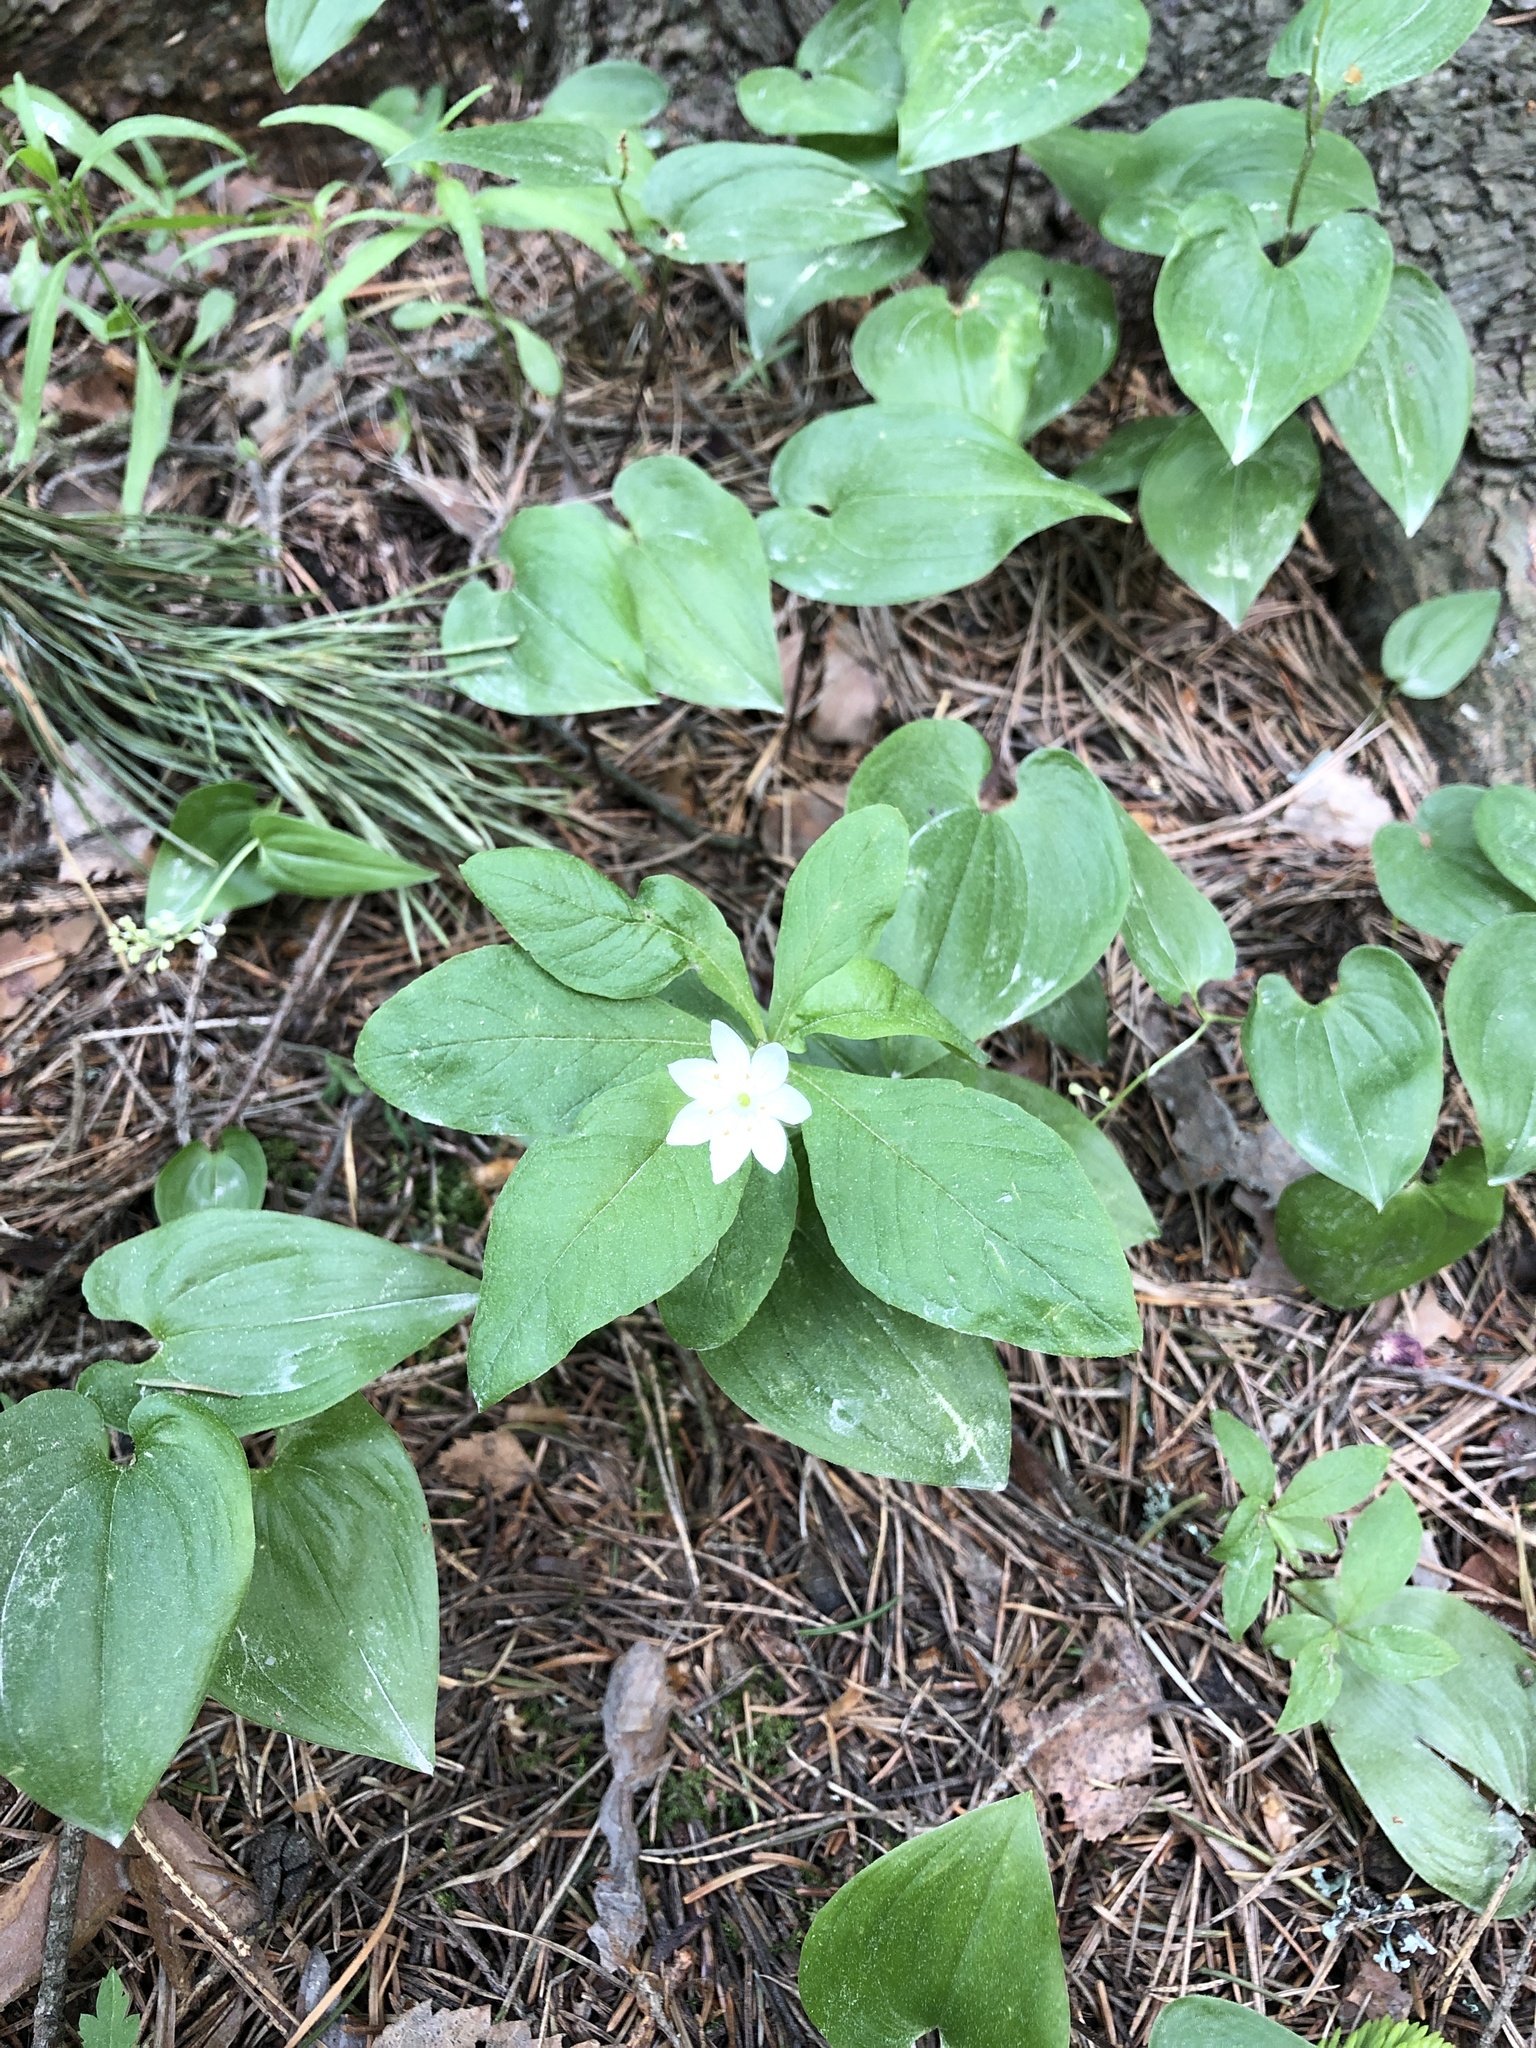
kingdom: Plantae
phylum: Tracheophyta
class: Magnoliopsida
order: Ericales
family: Primulaceae
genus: Lysimachia
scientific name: Lysimachia europaea
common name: Arctic starflower
